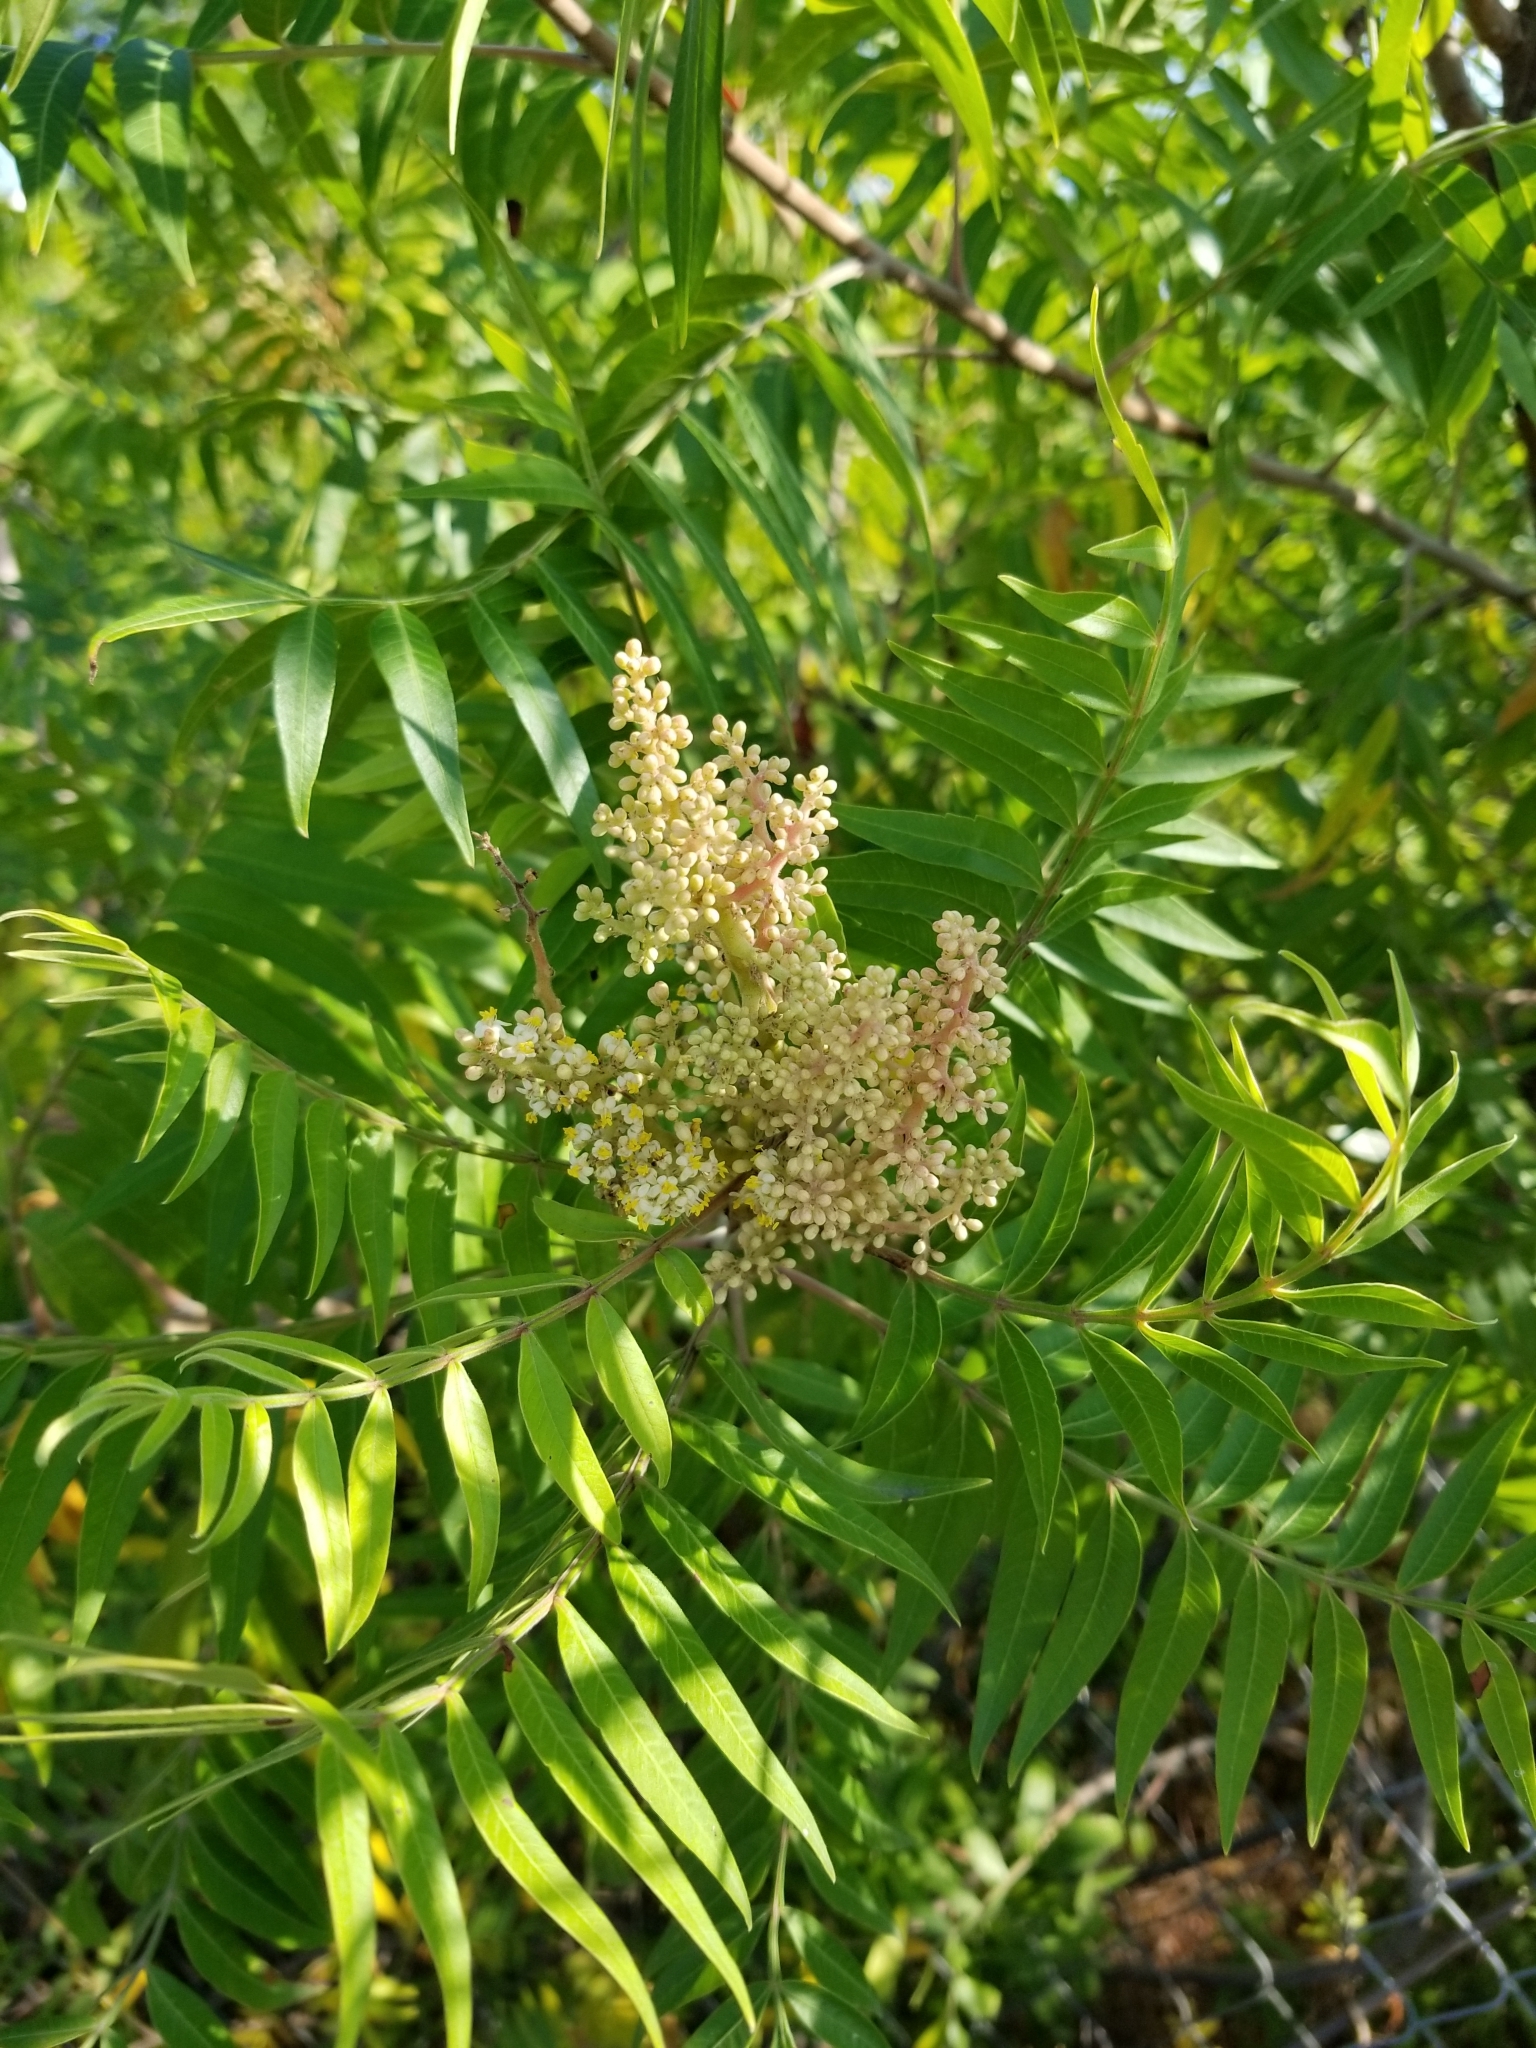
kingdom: Plantae
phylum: Tracheophyta
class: Magnoliopsida
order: Sapindales
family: Anacardiaceae
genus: Rhus
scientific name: Rhus lanceolata
